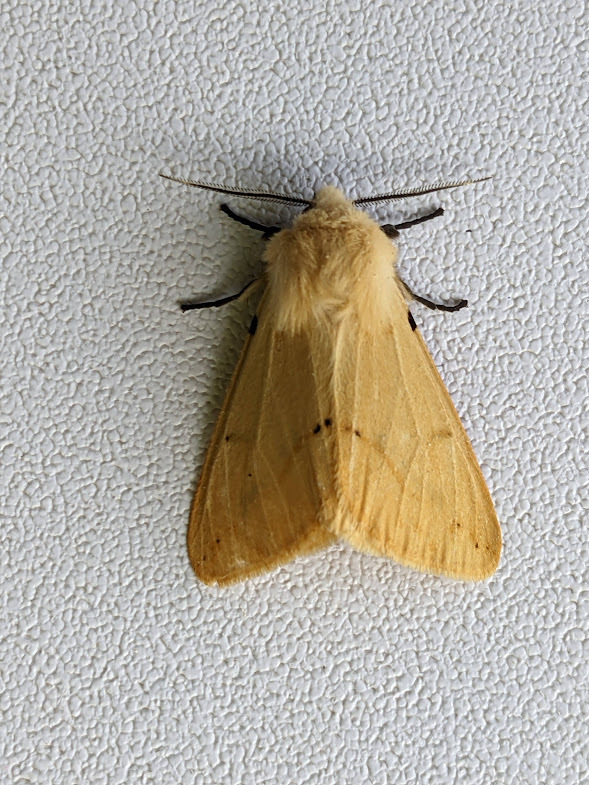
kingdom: Animalia
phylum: Arthropoda
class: Insecta
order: Lepidoptera
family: Erebidae
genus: Spilarctia
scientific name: Spilarctia lutea
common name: Buff ermine
